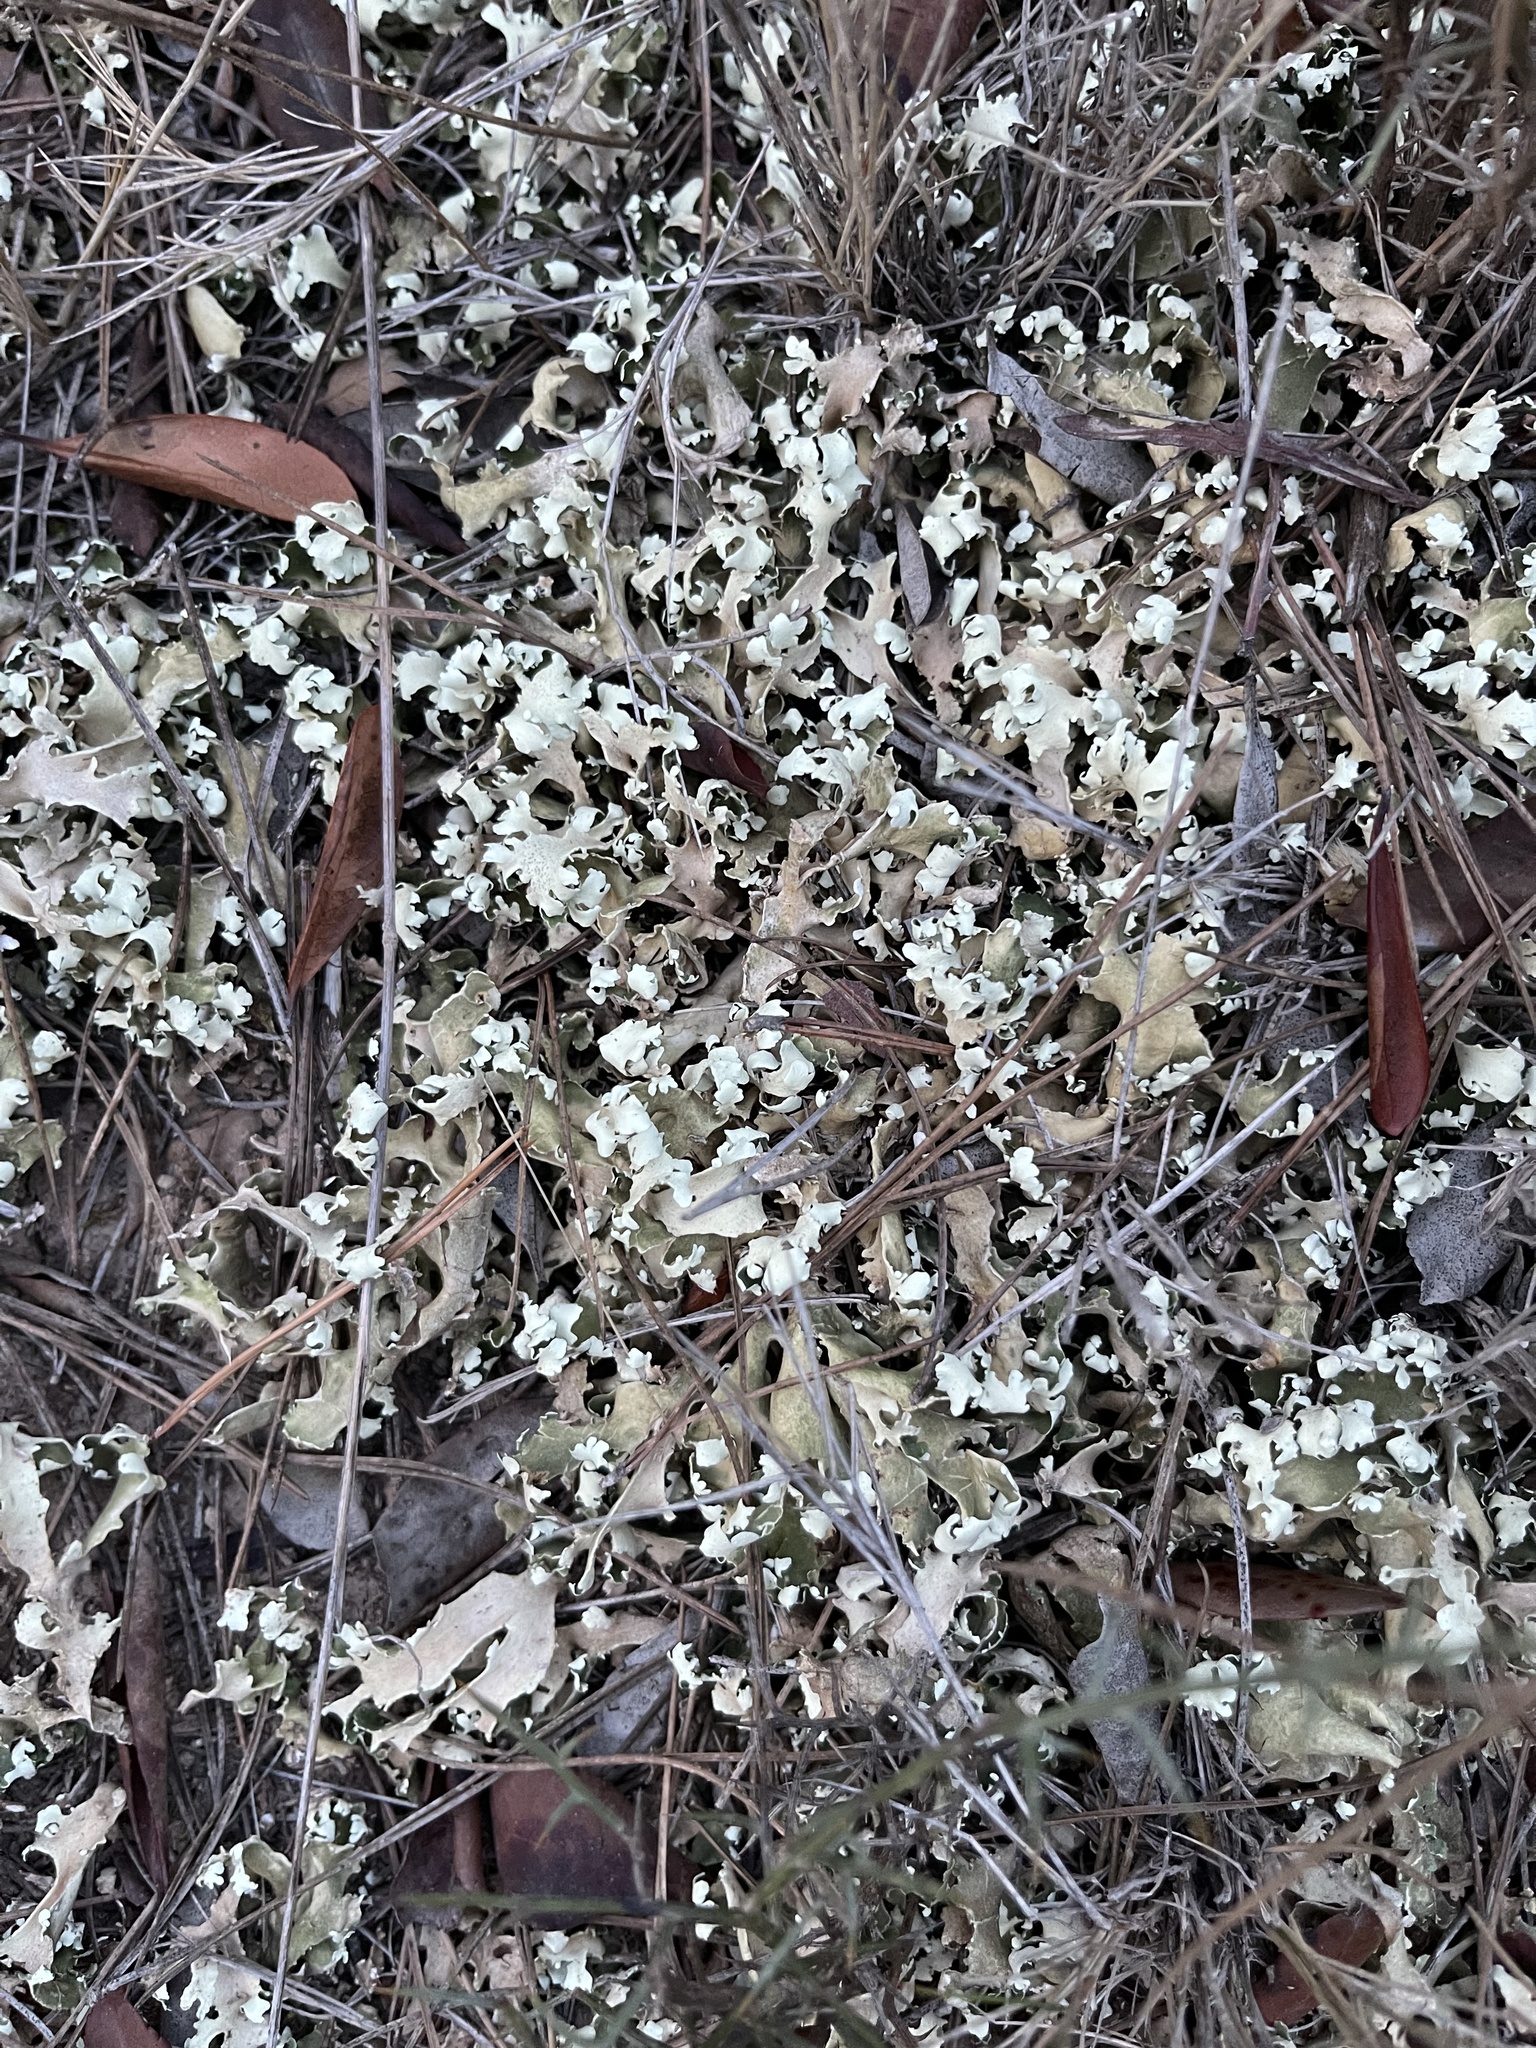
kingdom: Fungi
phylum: Ascomycota
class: Lecanoromycetes
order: Lecanorales
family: Cladoniaceae
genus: Cladonia
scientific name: Cladonia foliacea
